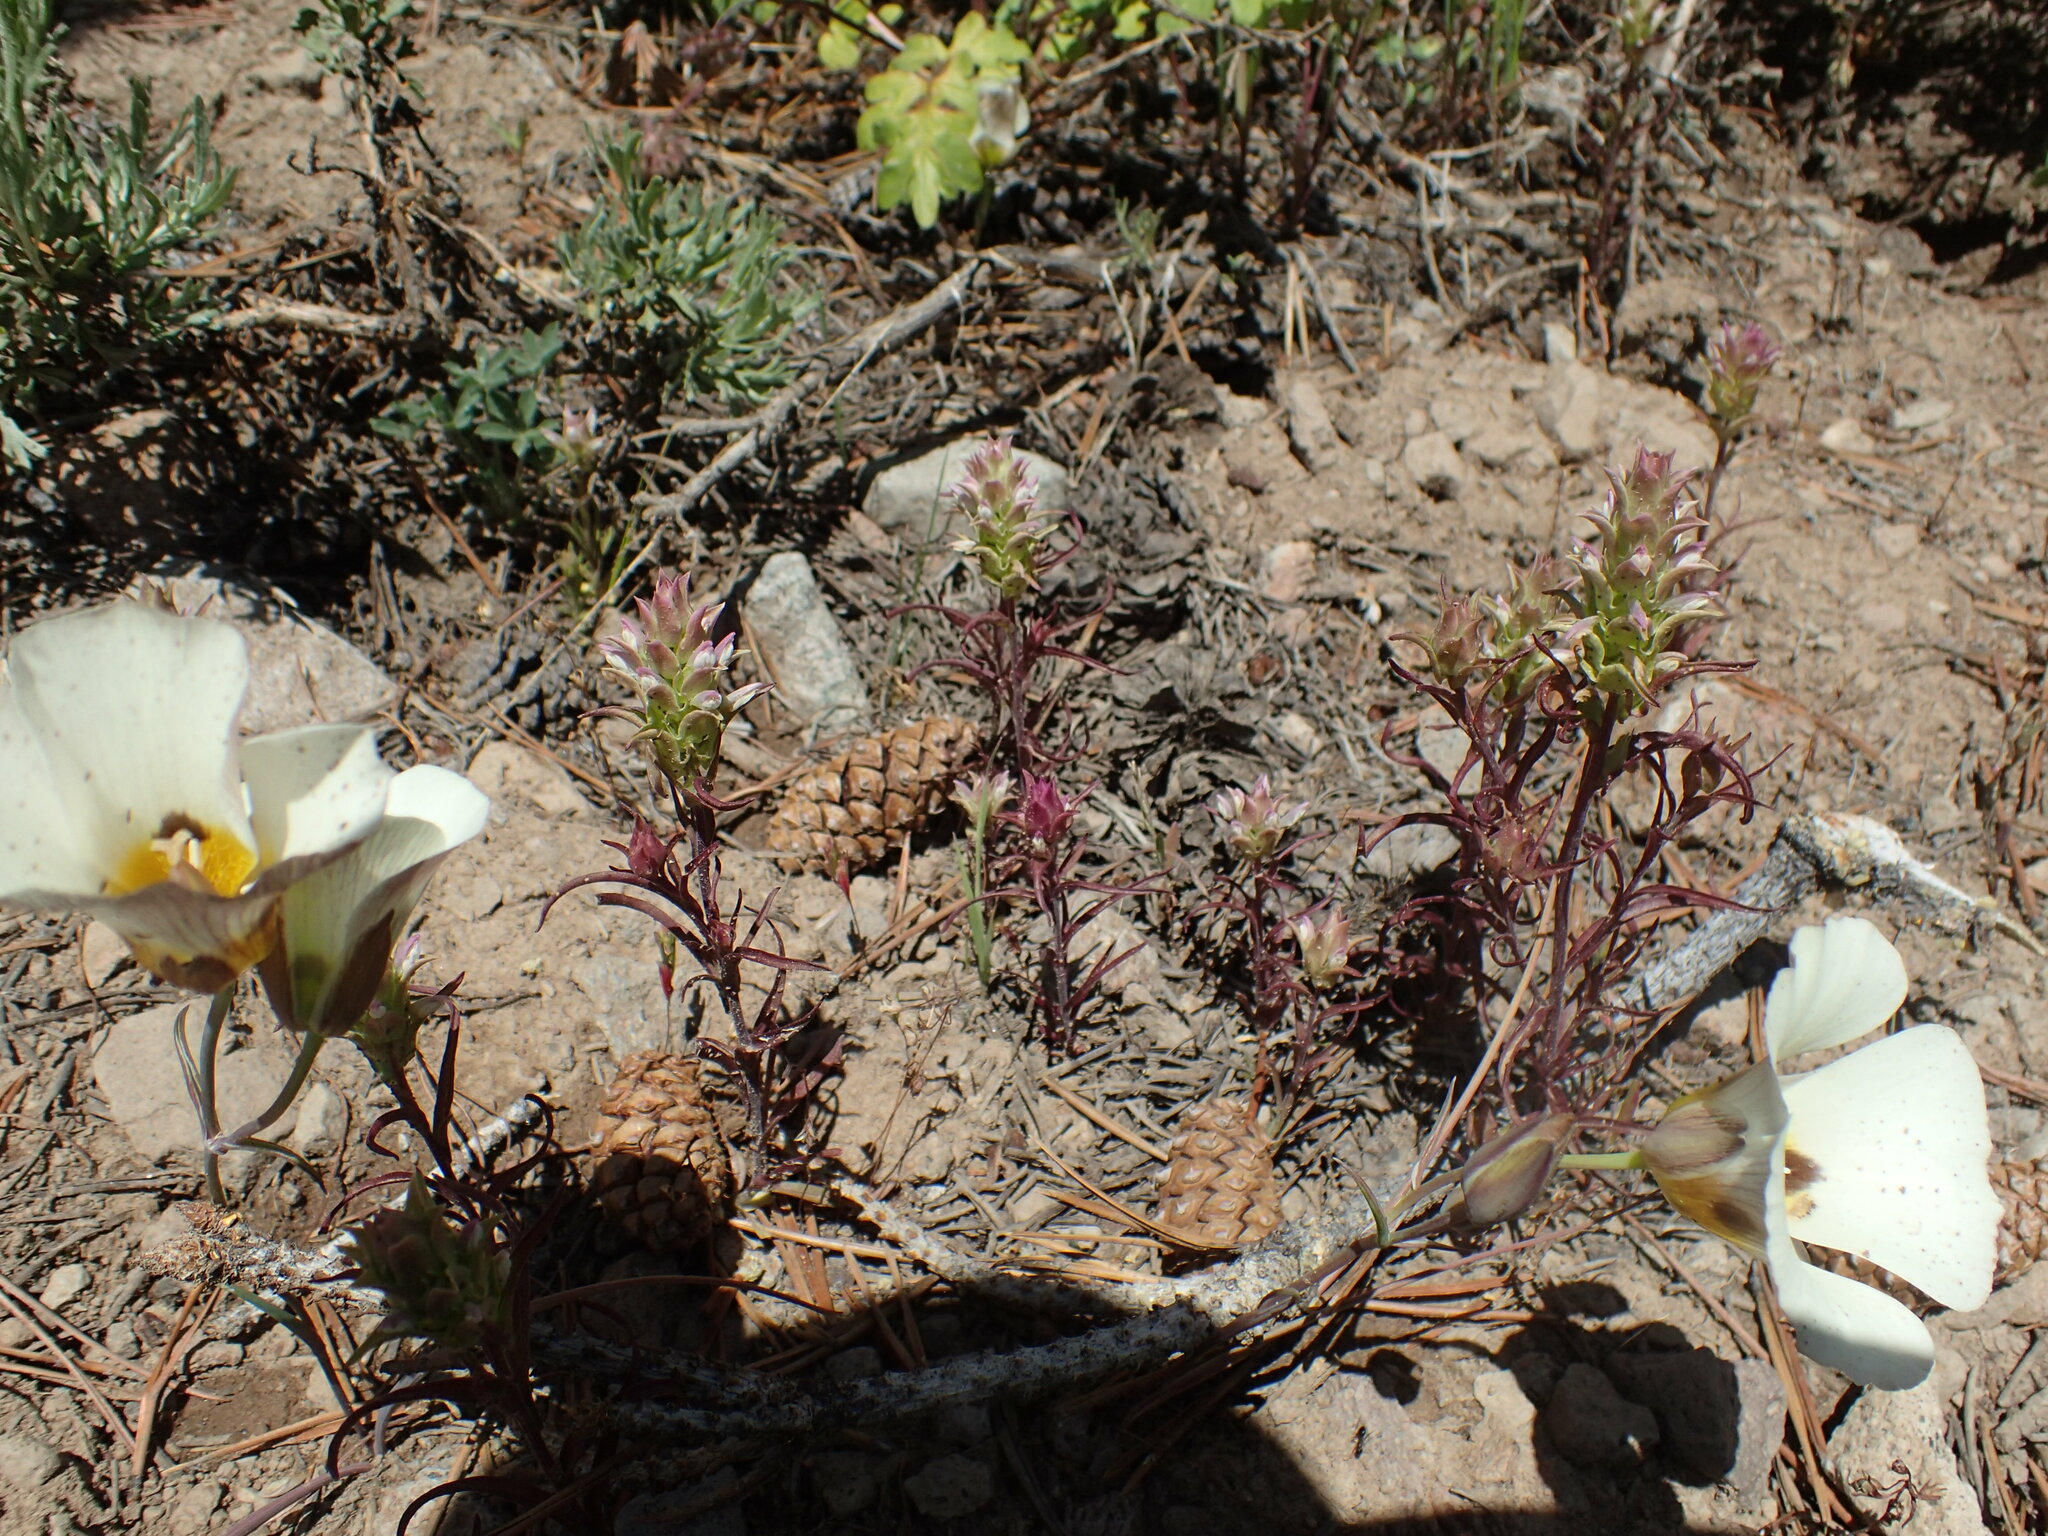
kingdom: Plantae
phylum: Tracheophyta
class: Magnoliopsida
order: Lamiales
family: Orobanchaceae
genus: Orthocarpus
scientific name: Orthocarpus cuspidatus
